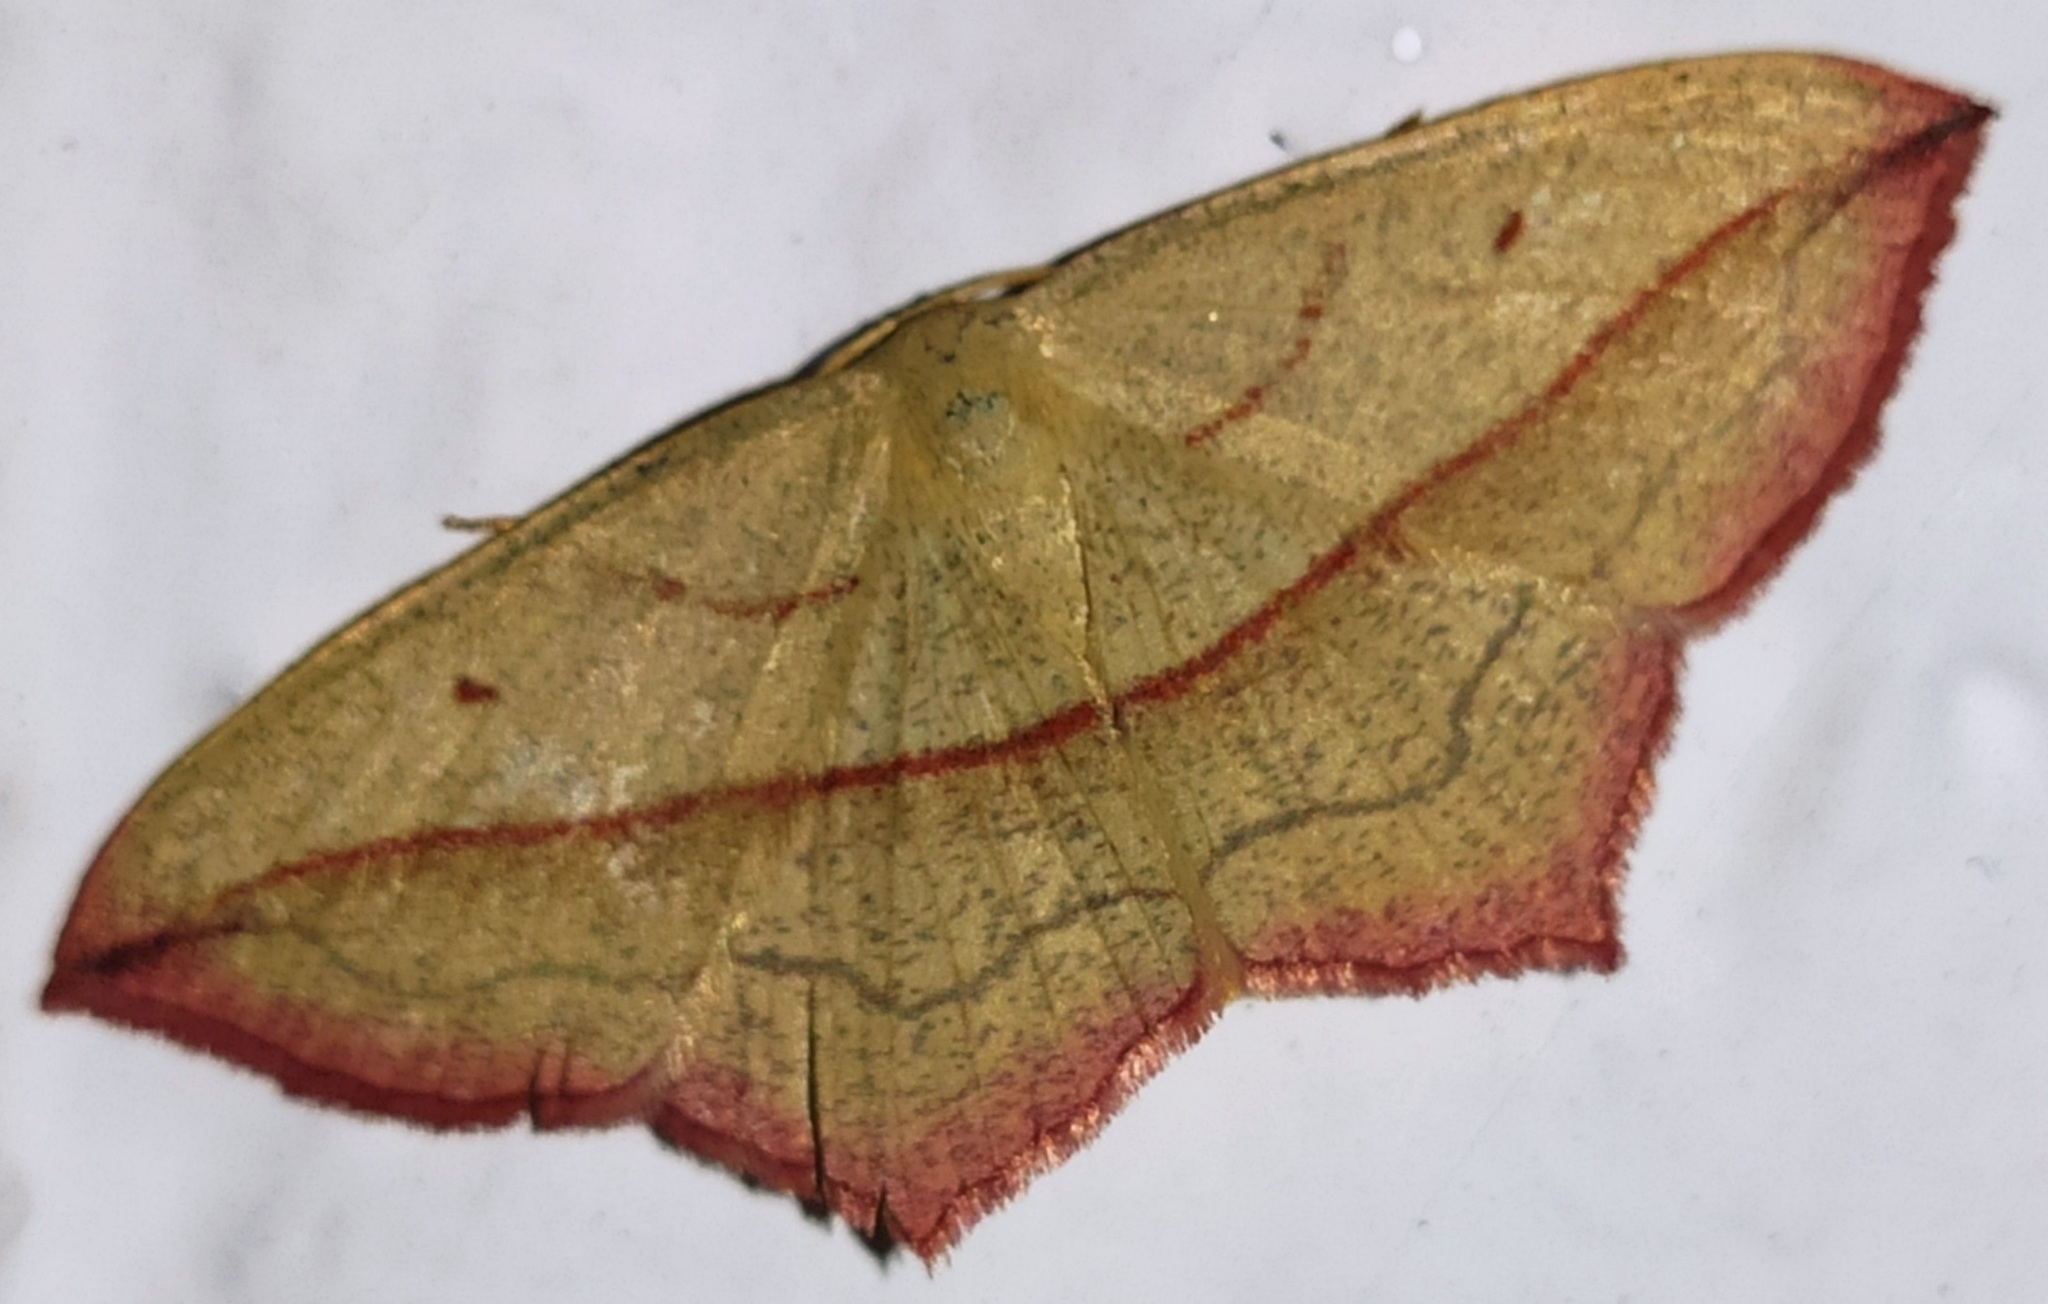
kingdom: Animalia
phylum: Arthropoda
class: Insecta
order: Lepidoptera
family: Geometridae
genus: Timandra
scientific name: Timandra comae
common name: Blood-vein
